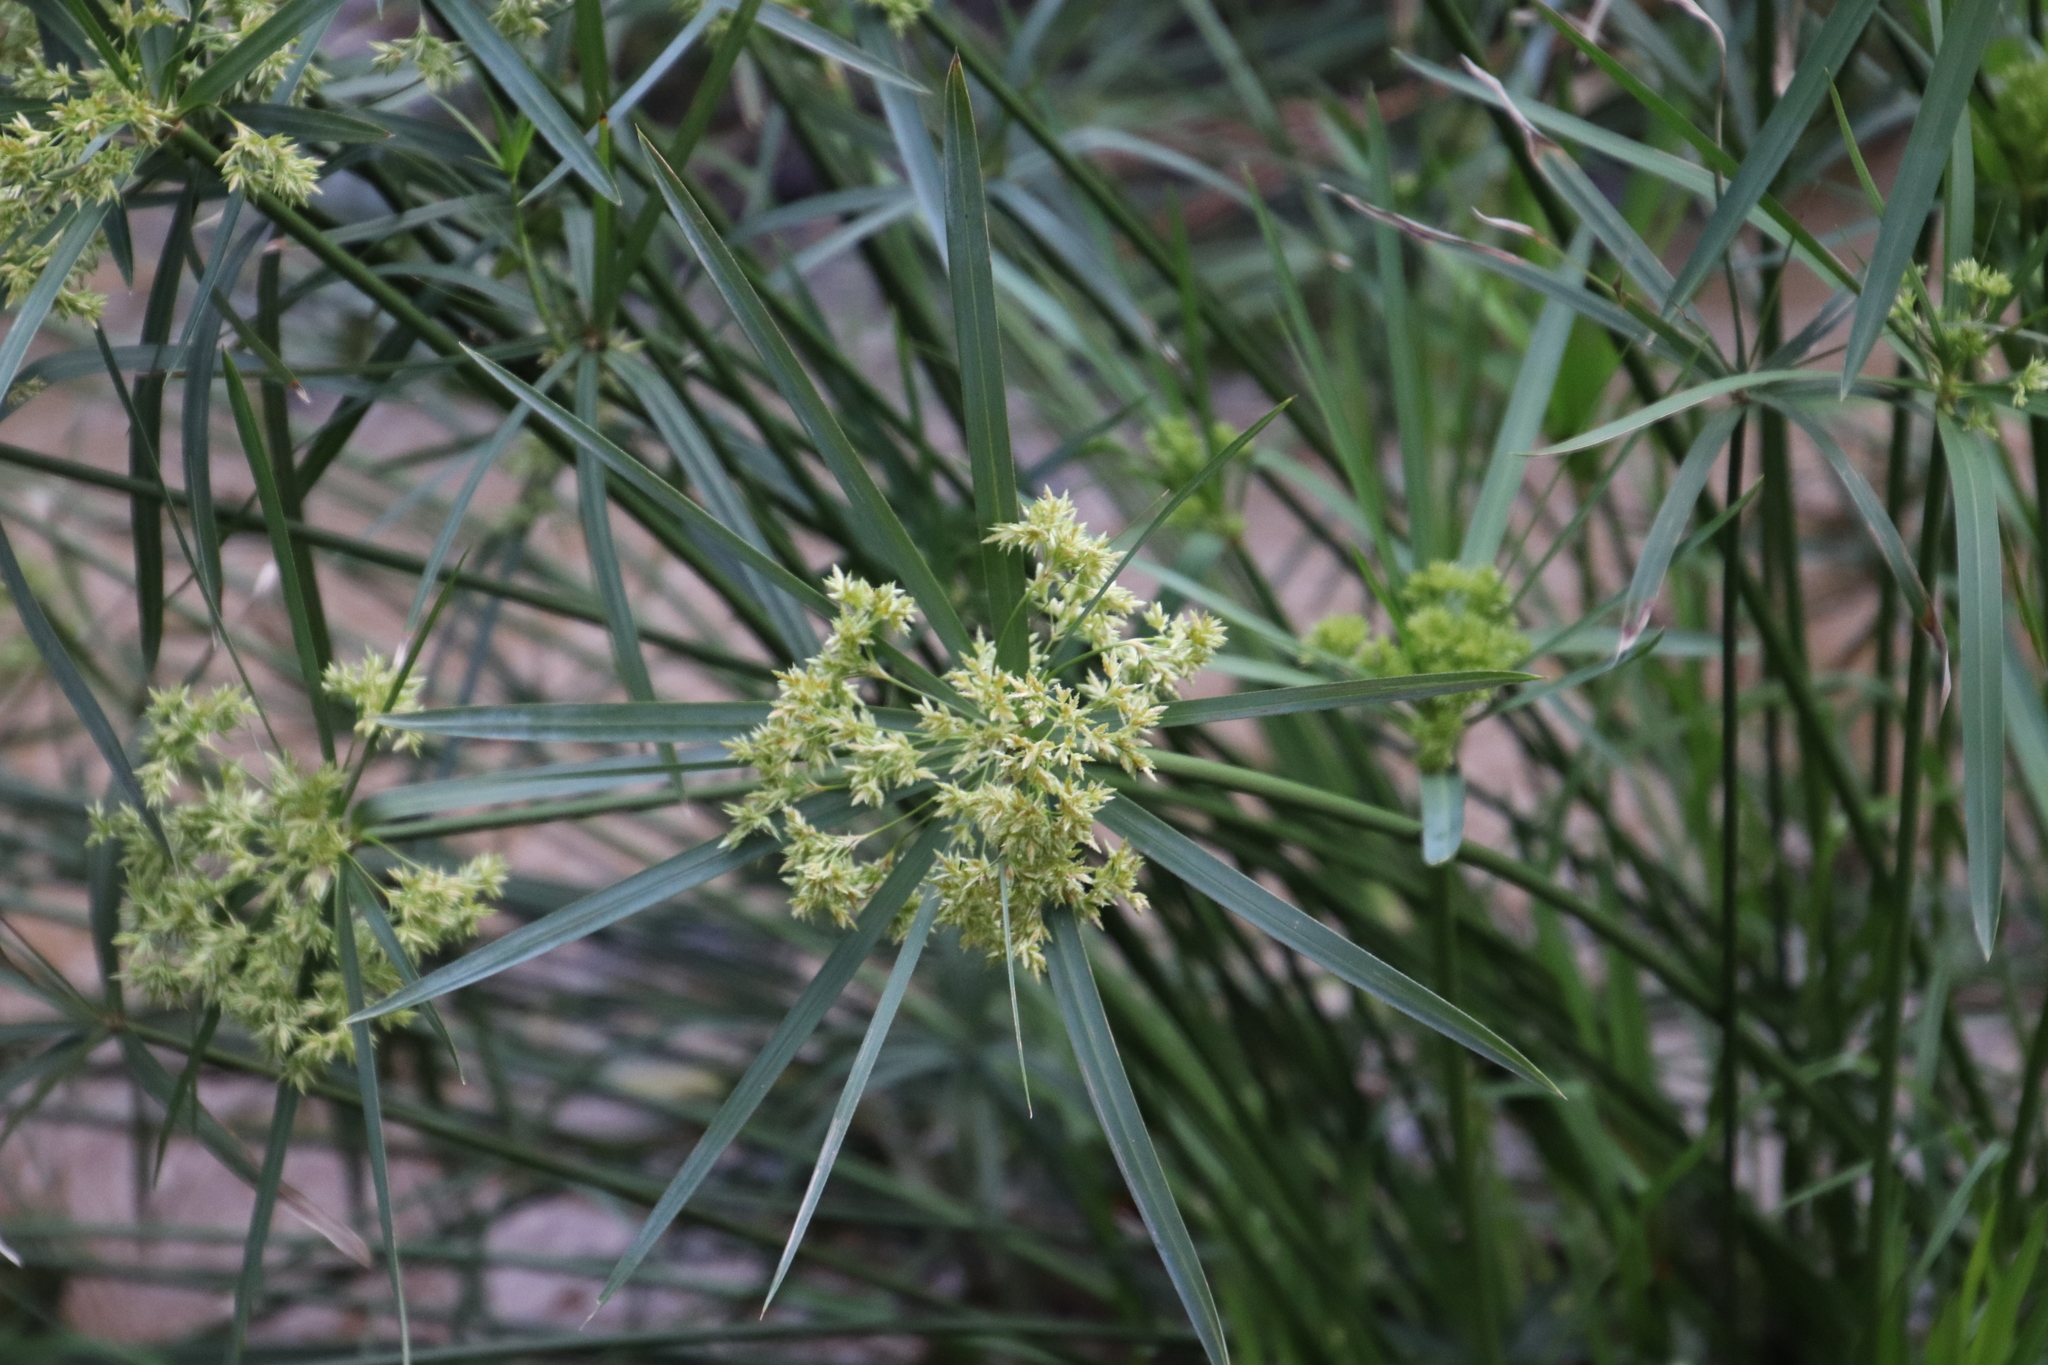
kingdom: Plantae
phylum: Tracheophyta
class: Liliopsida
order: Poales
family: Cyperaceae
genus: Cyperus
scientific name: Cyperus textilis
